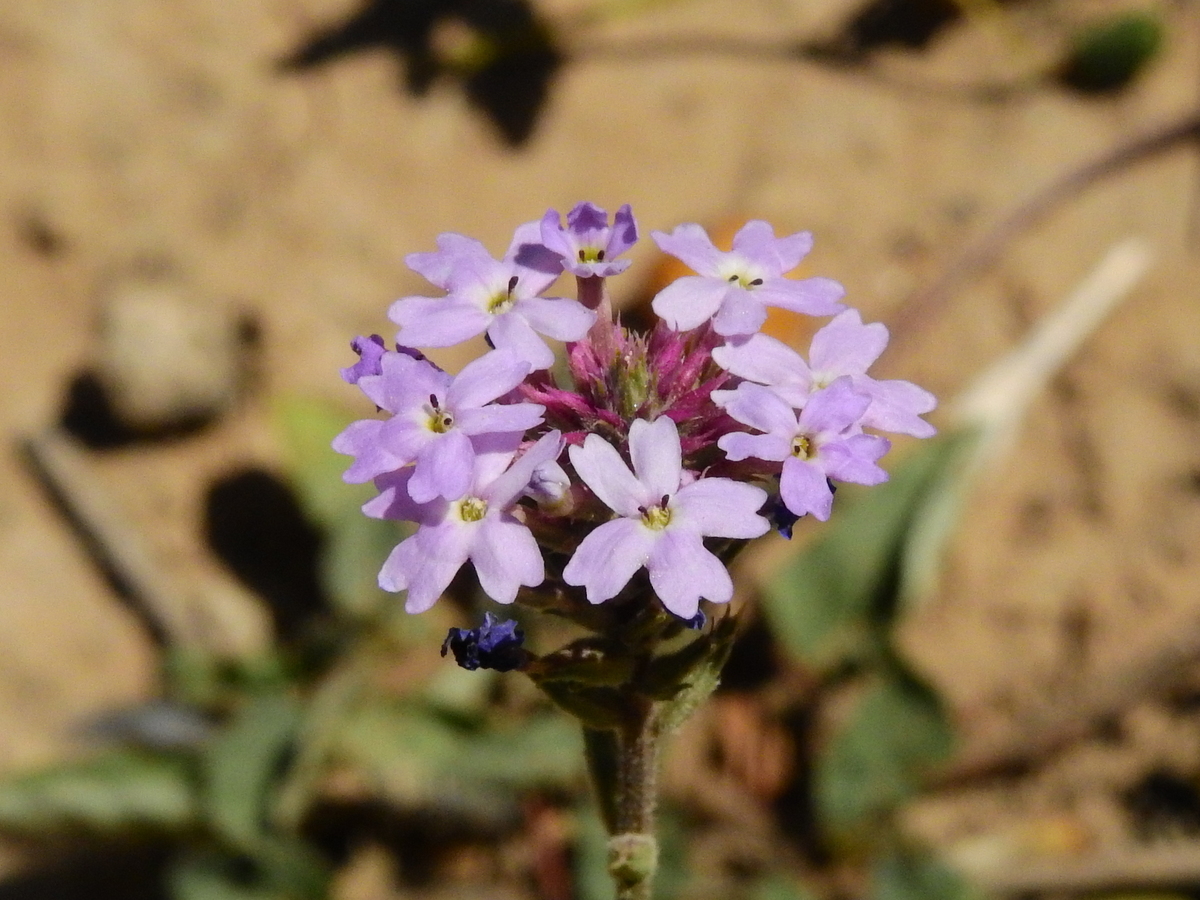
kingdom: Plantae
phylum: Tracheophyta
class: Magnoliopsida
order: Lamiales
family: Verbenaceae
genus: Verbena
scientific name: Verbena tenera
